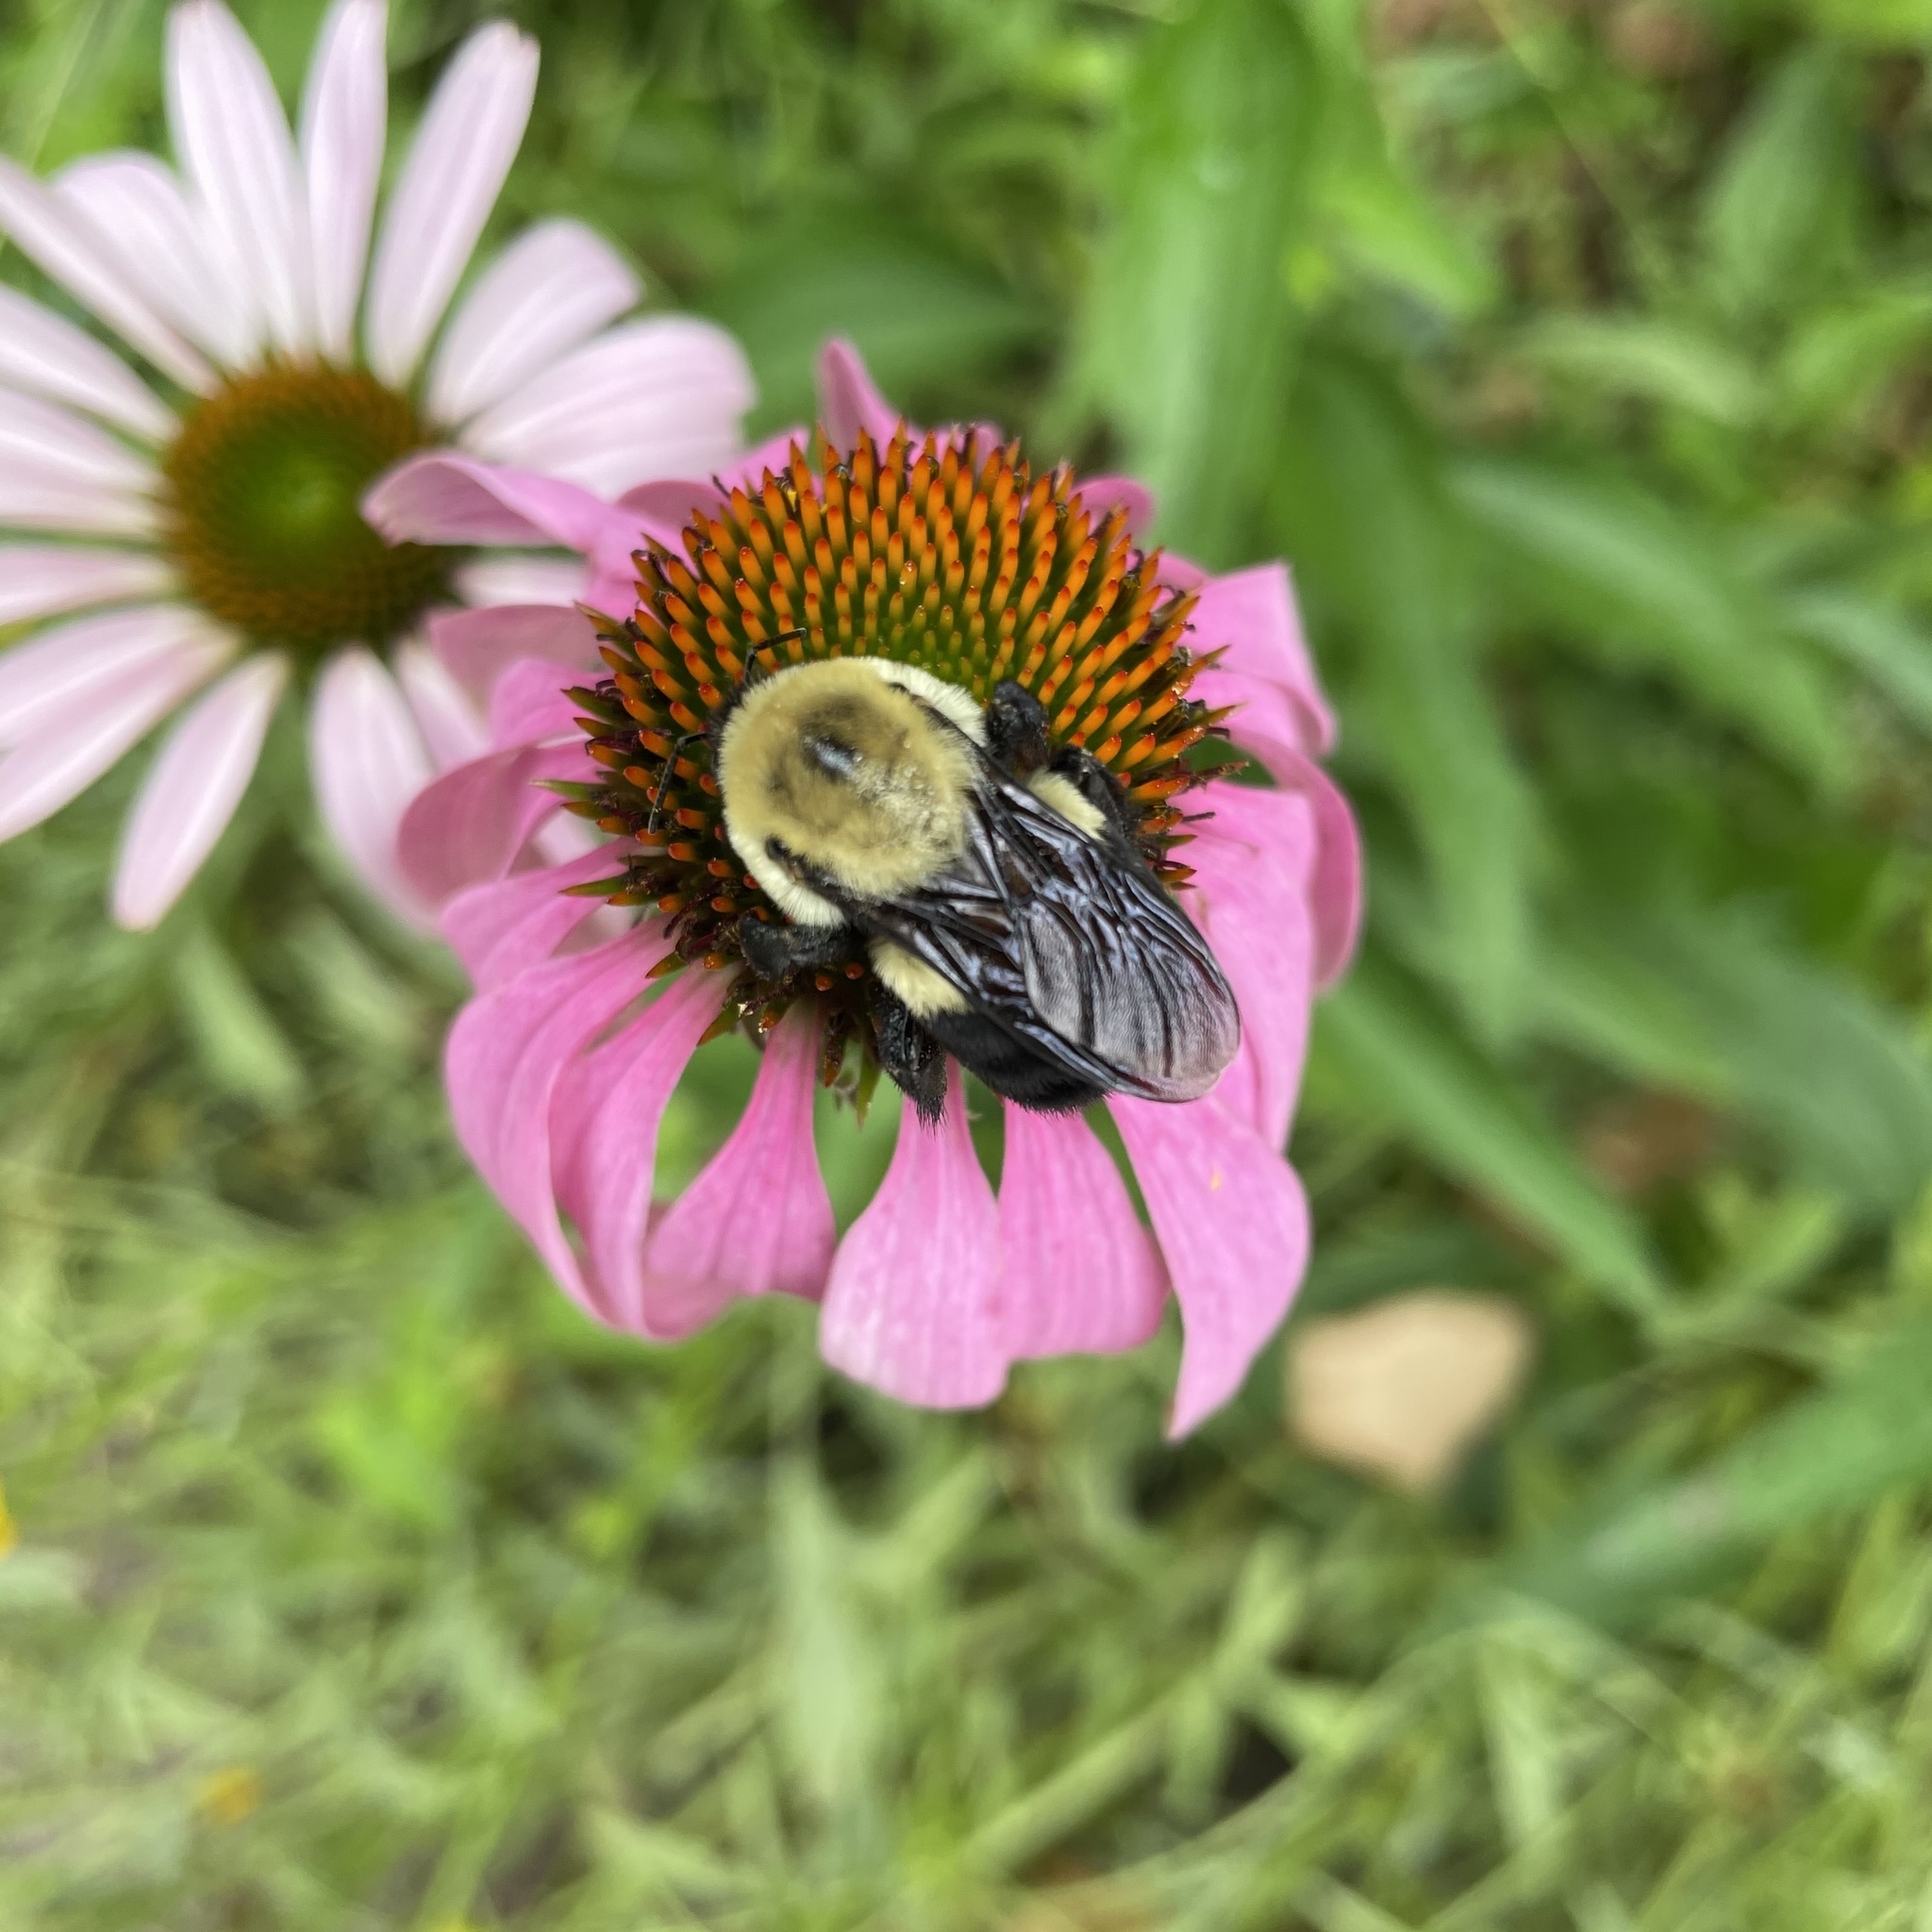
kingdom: Animalia
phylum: Arthropoda
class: Insecta
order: Hymenoptera
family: Apidae
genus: Bombus
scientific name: Bombus griseocollis
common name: Brown-belted bumble bee
